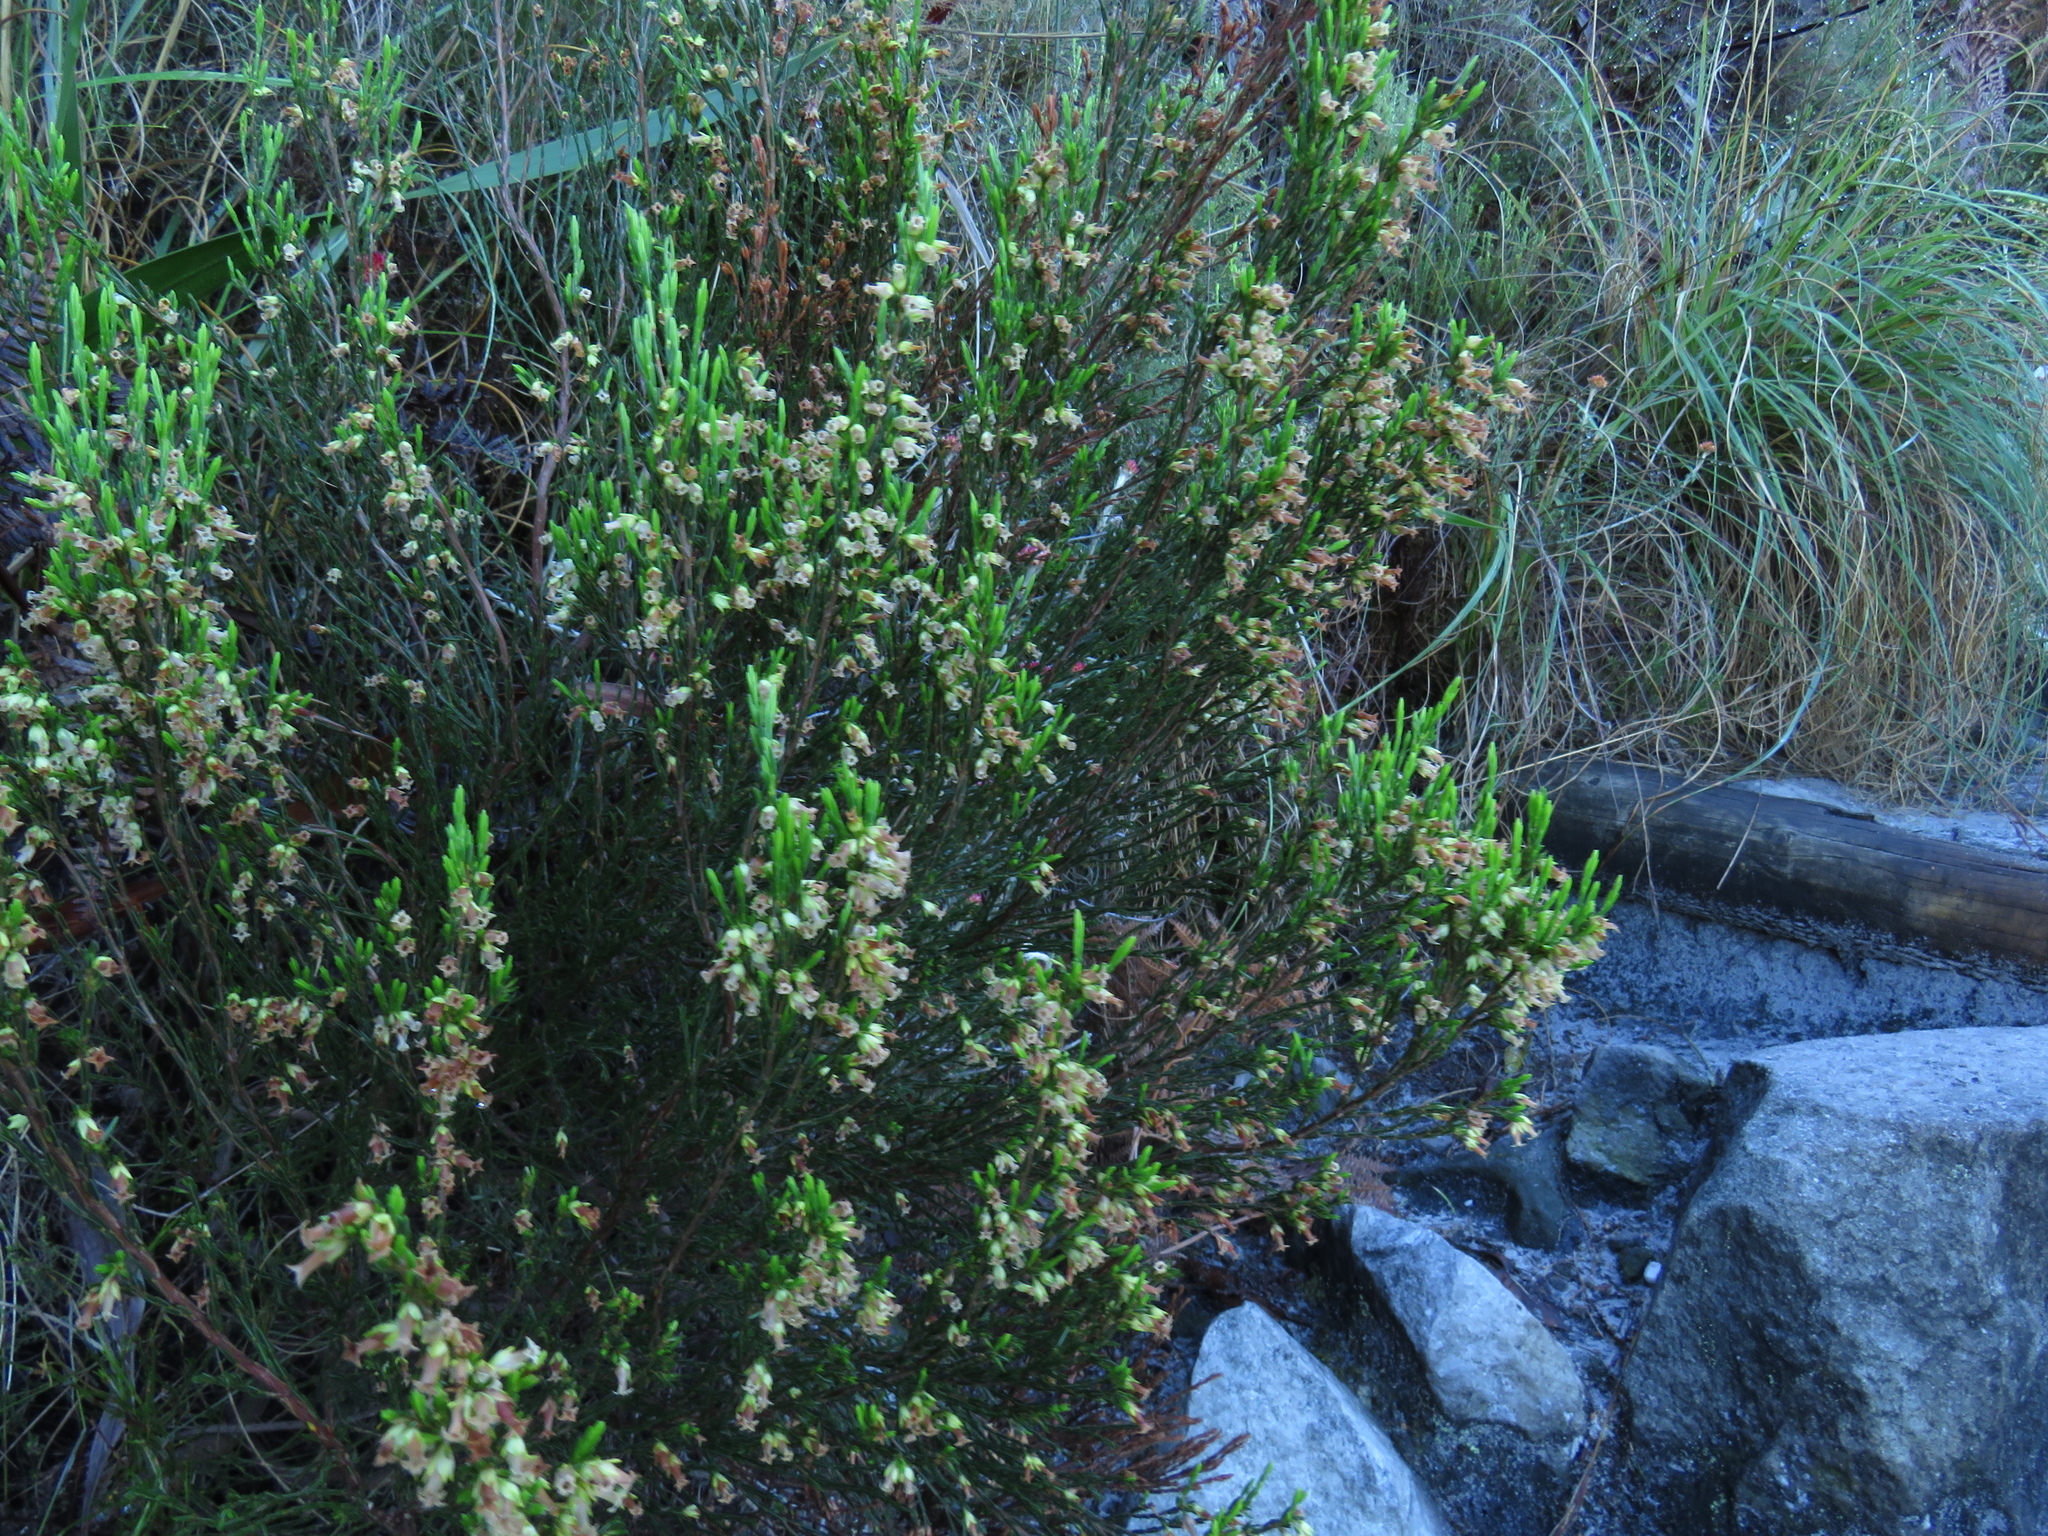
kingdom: Plantae
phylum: Tracheophyta
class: Magnoliopsida
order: Ericales
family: Ericaceae
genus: Erica
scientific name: Erica lutea
